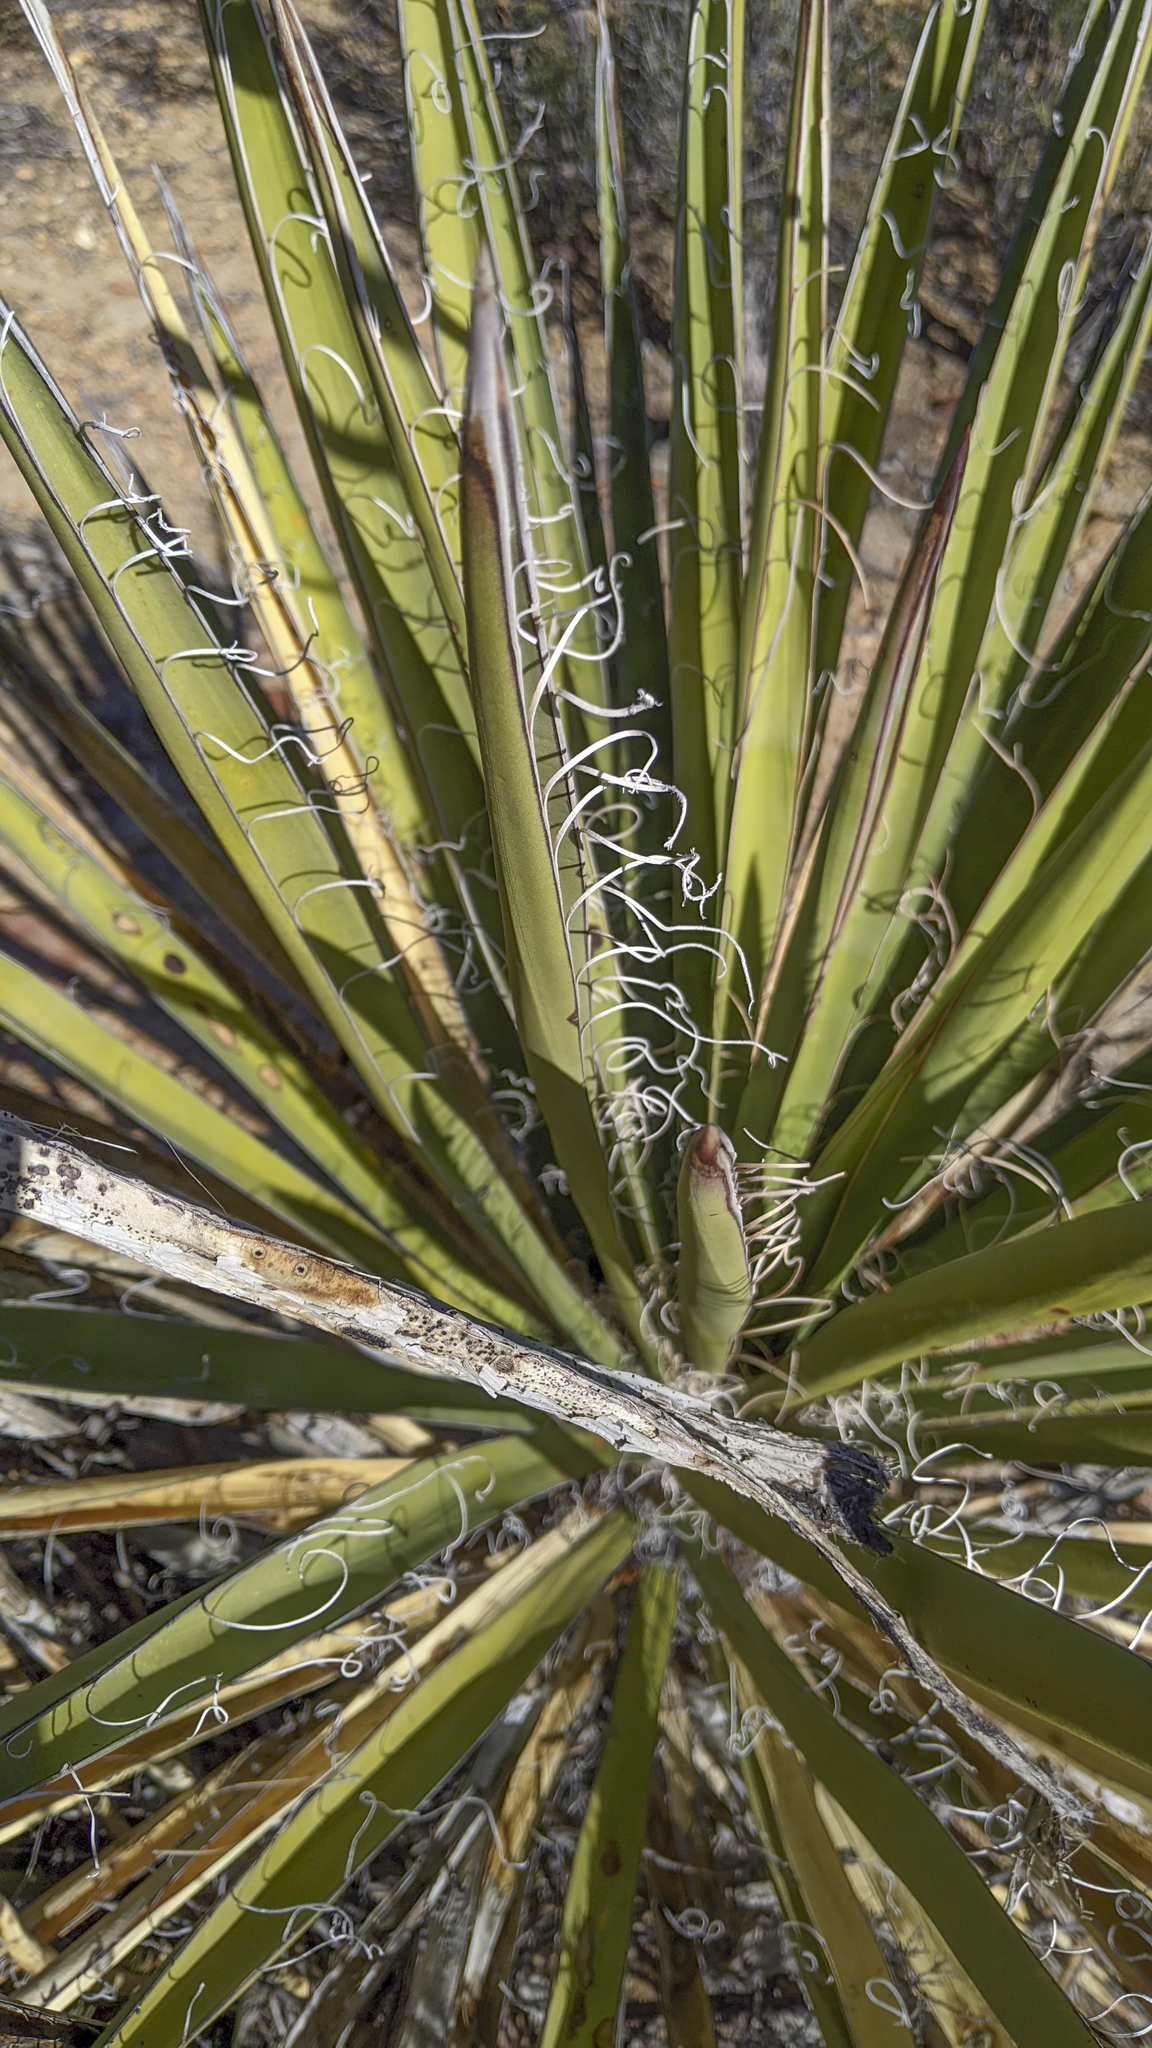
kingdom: Plantae
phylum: Tracheophyta
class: Liliopsida
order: Asparagales
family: Asparagaceae
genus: Yucca
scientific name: Yucca schidigera
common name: Mojave yucca
